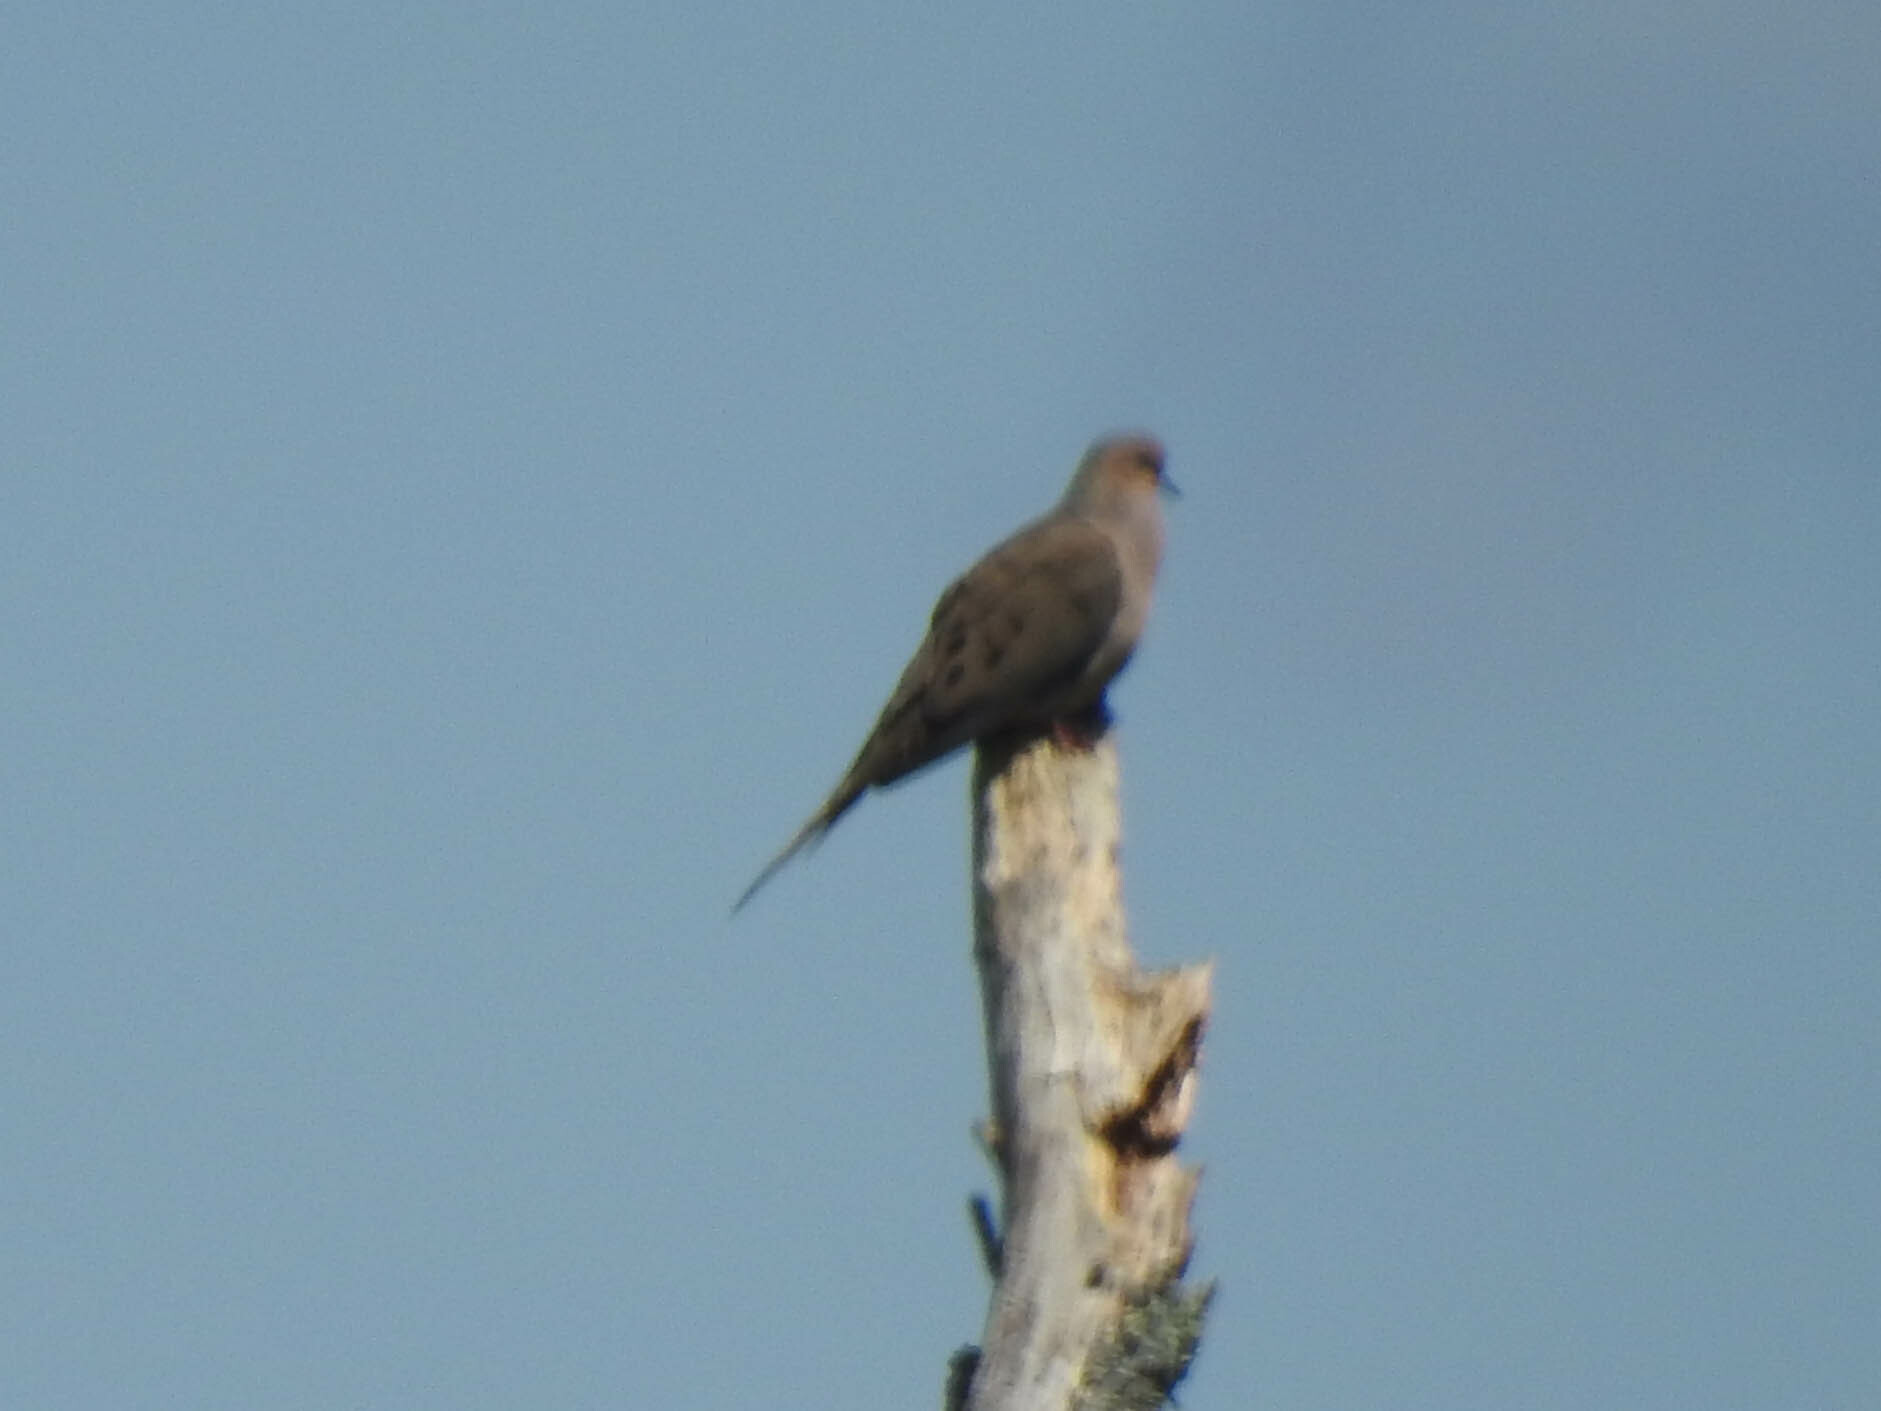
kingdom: Animalia
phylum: Chordata
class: Aves
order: Columbiformes
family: Columbidae
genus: Zenaida
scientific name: Zenaida macroura
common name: Mourning dove
